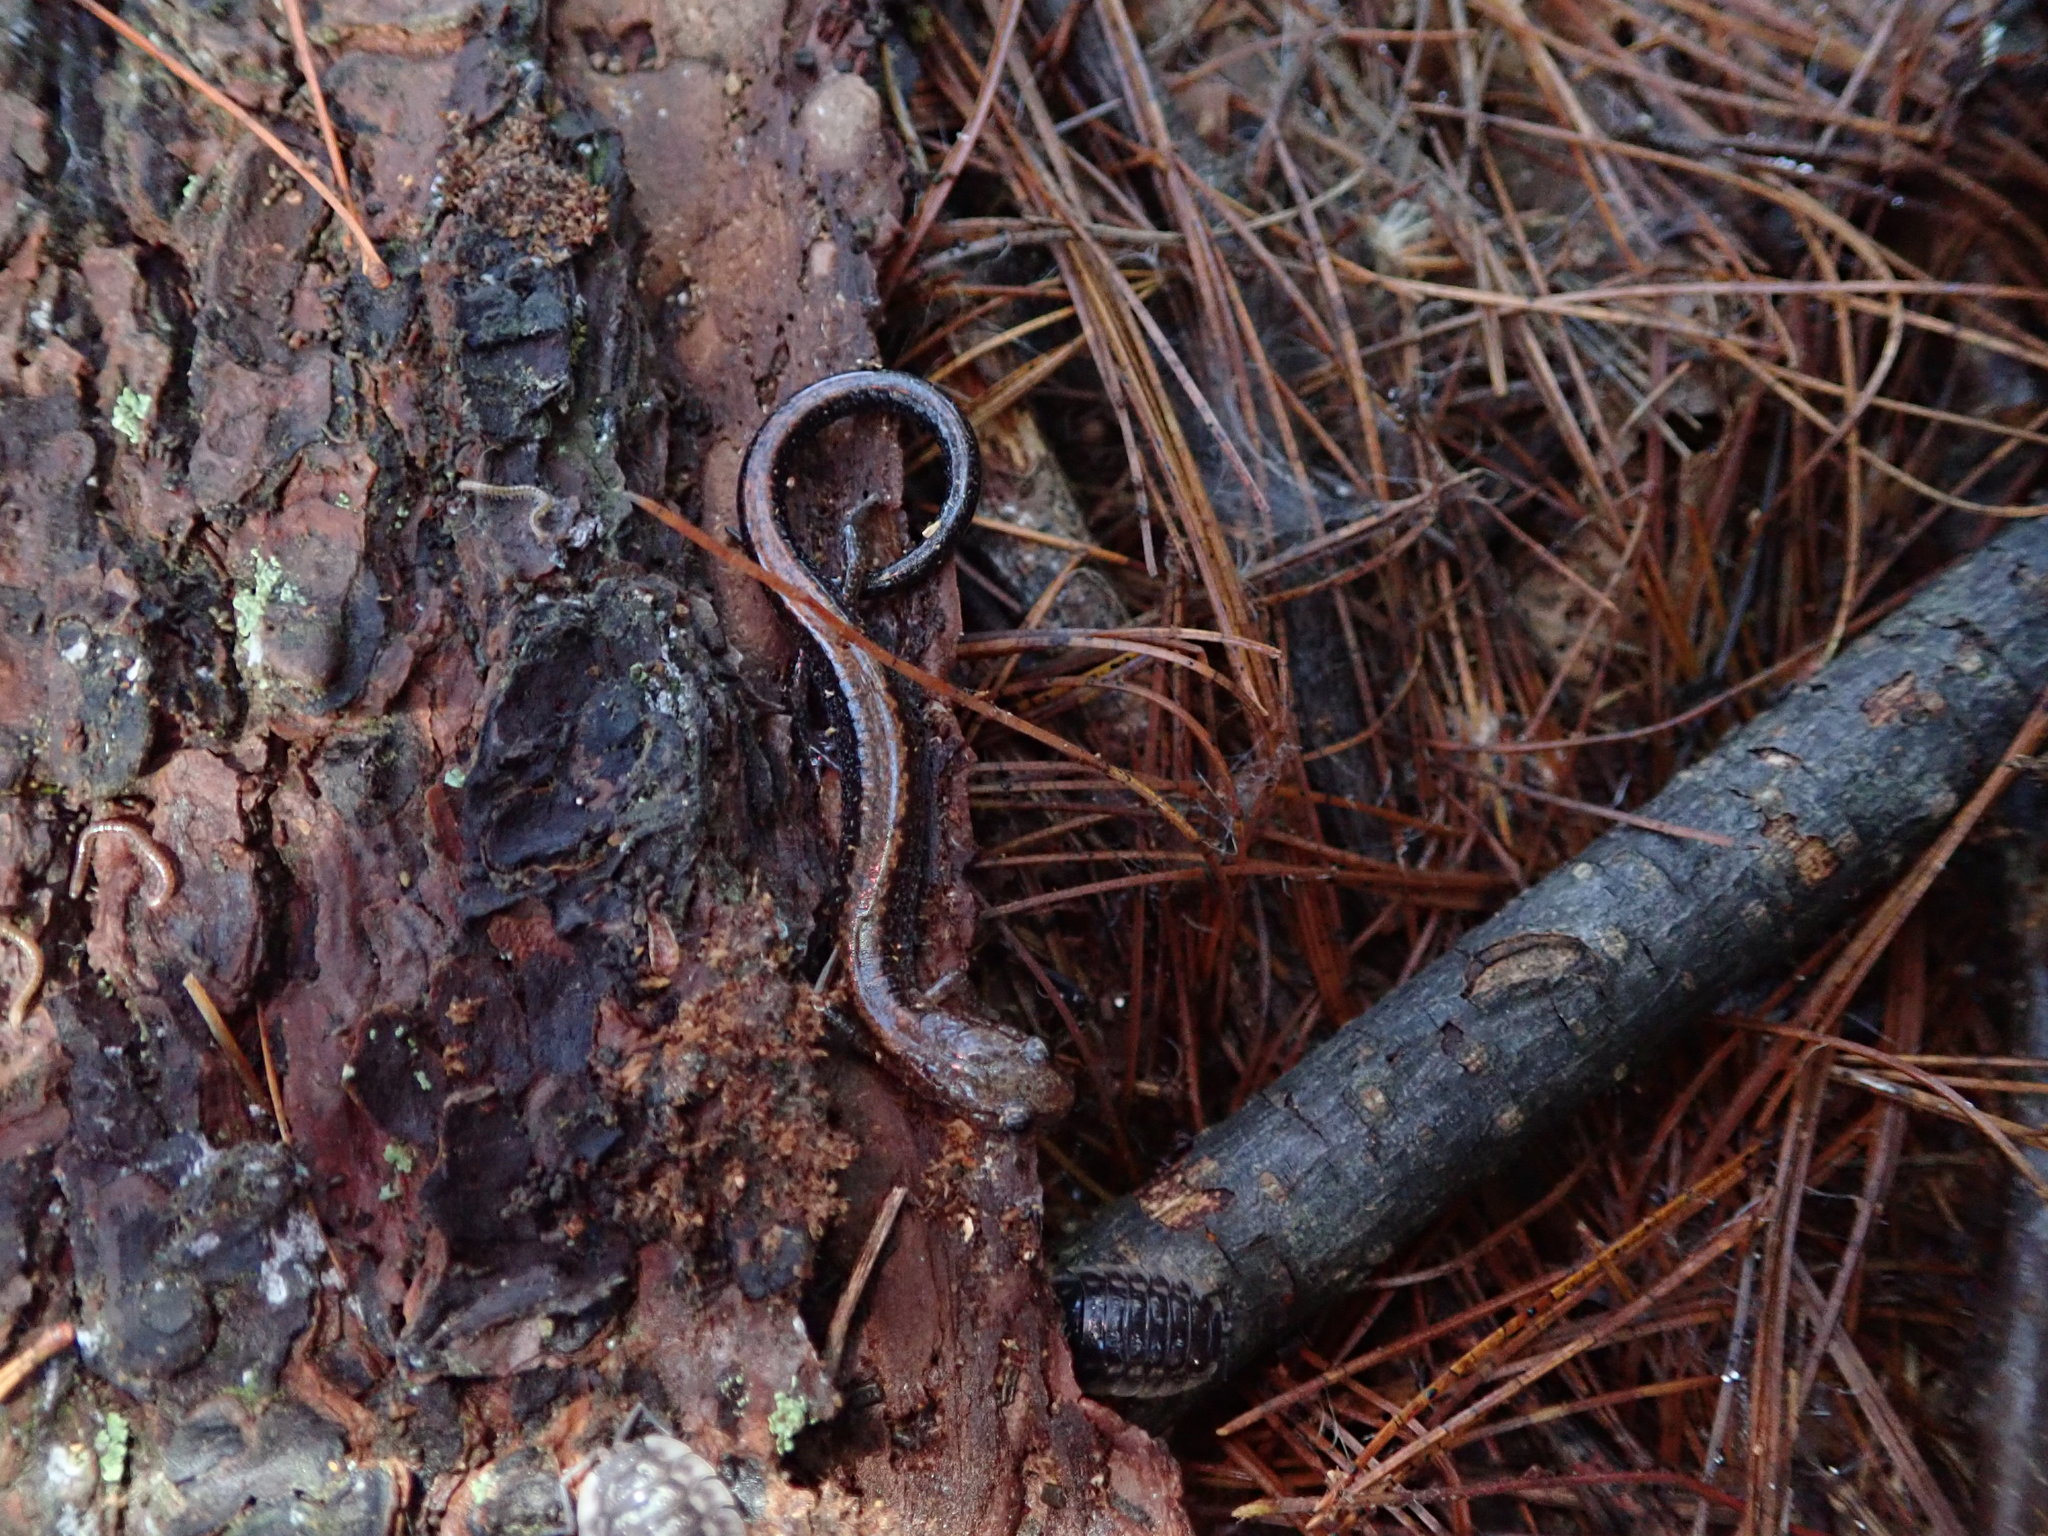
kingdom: Animalia
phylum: Chordata
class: Amphibia
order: Caudata
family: Plethodontidae
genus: Plethodon
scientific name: Plethodon cinereus
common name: Redback salamander
